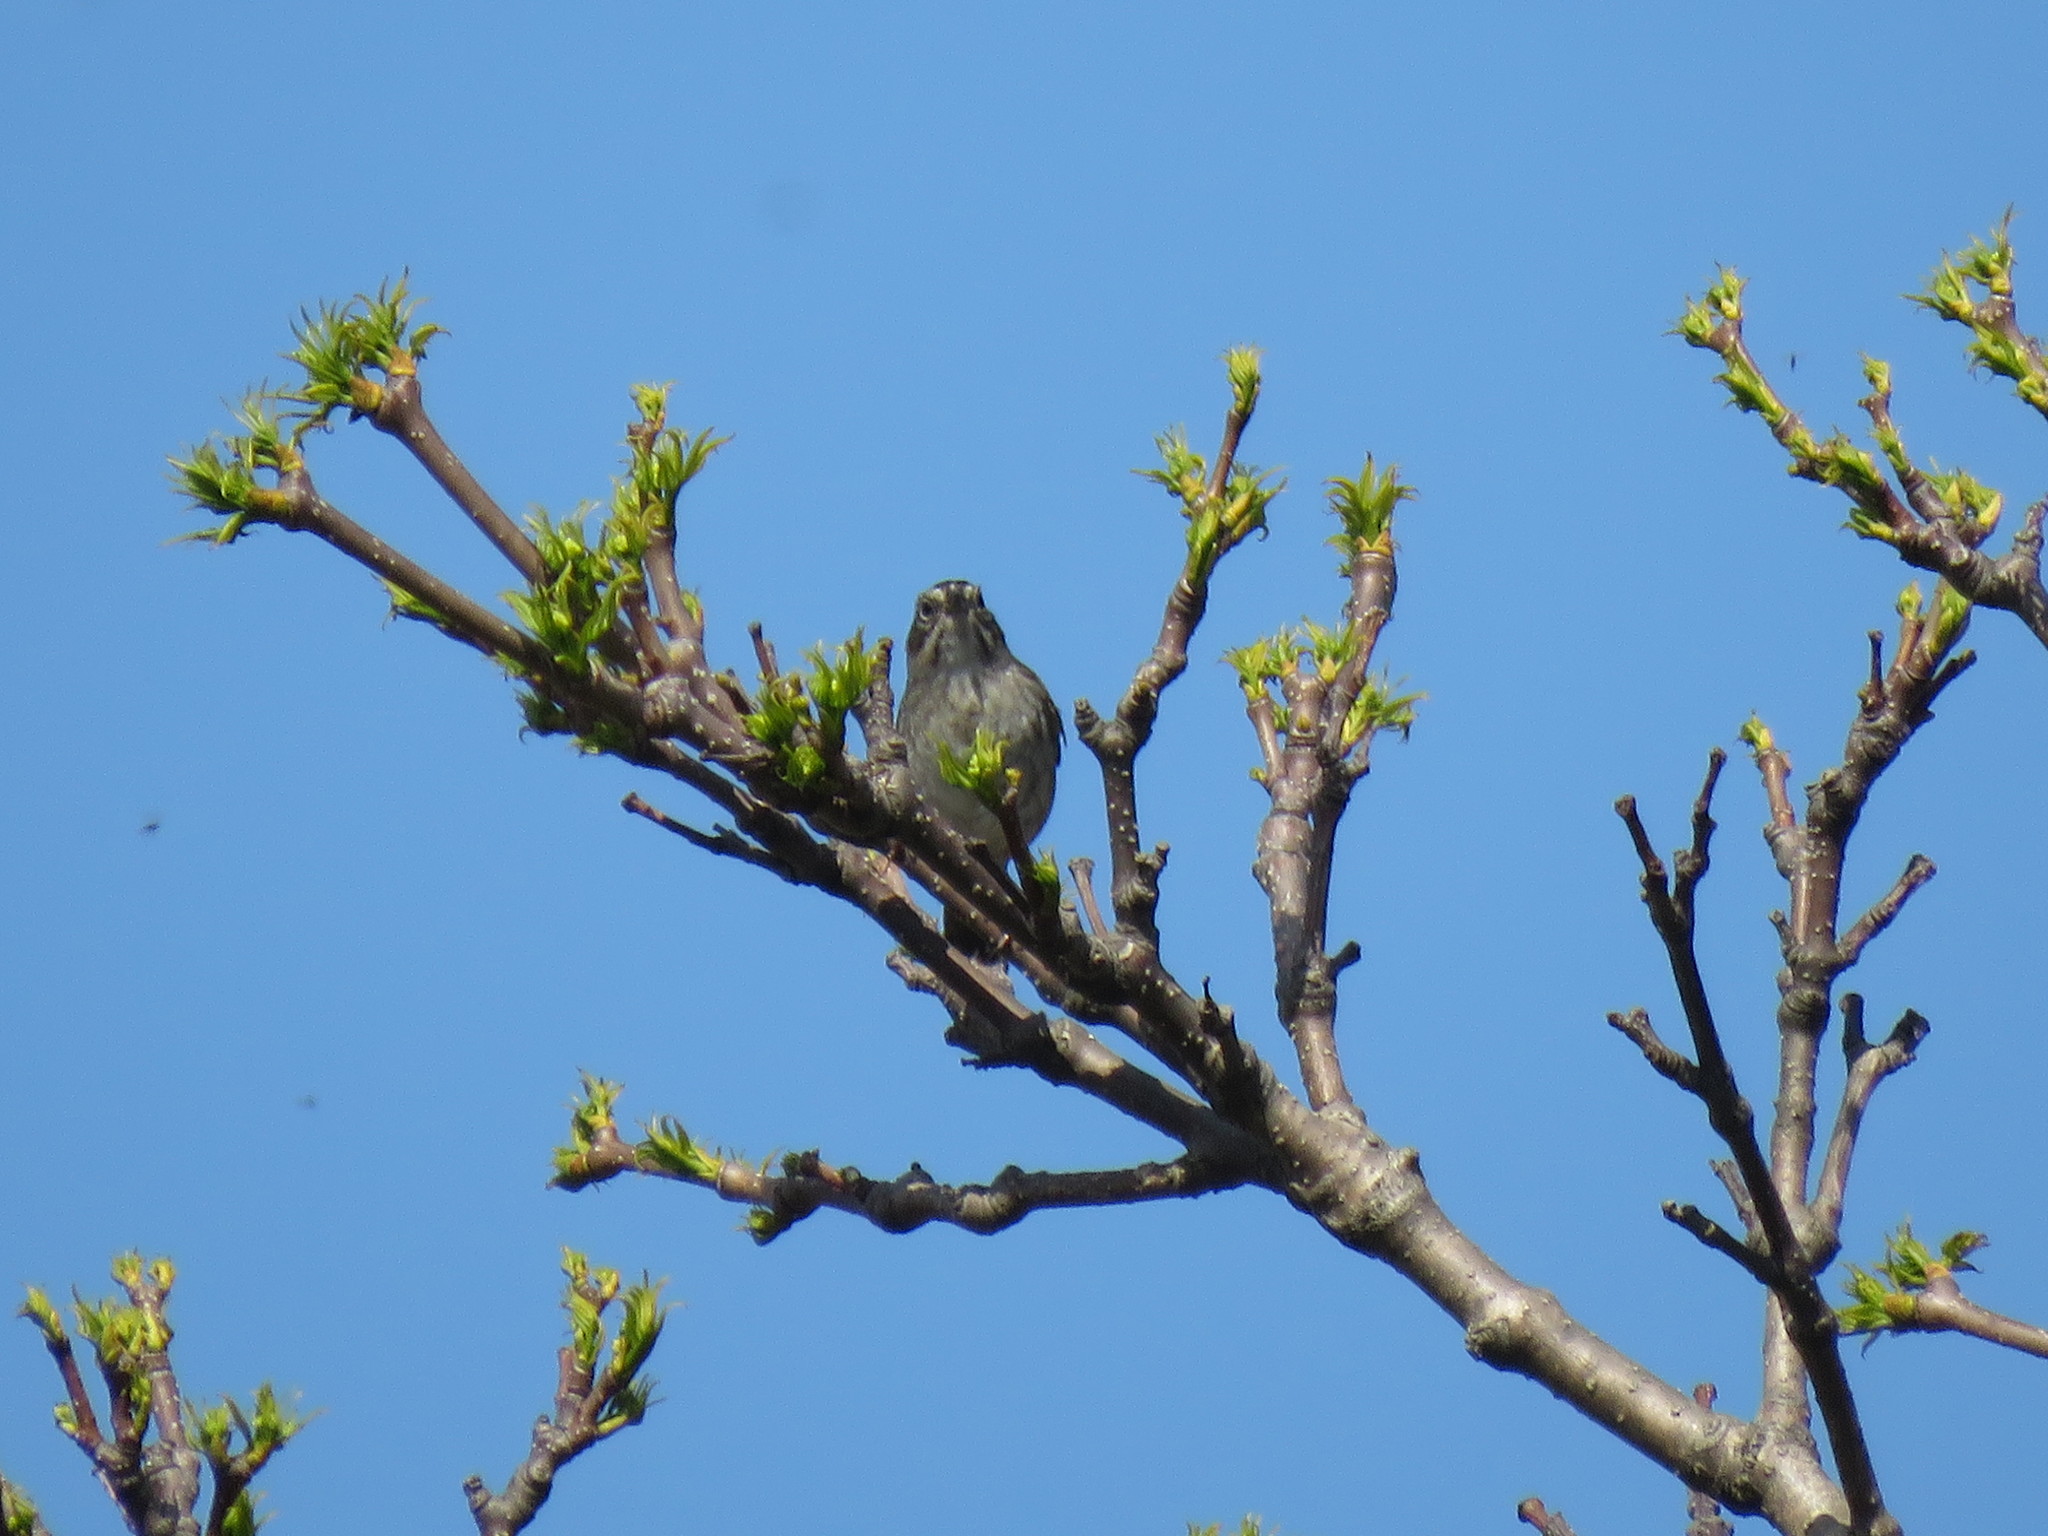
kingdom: Animalia
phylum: Chordata
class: Aves
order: Passeriformes
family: Passerellidae
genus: Melospiza
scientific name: Melospiza georgiana
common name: Swamp sparrow
